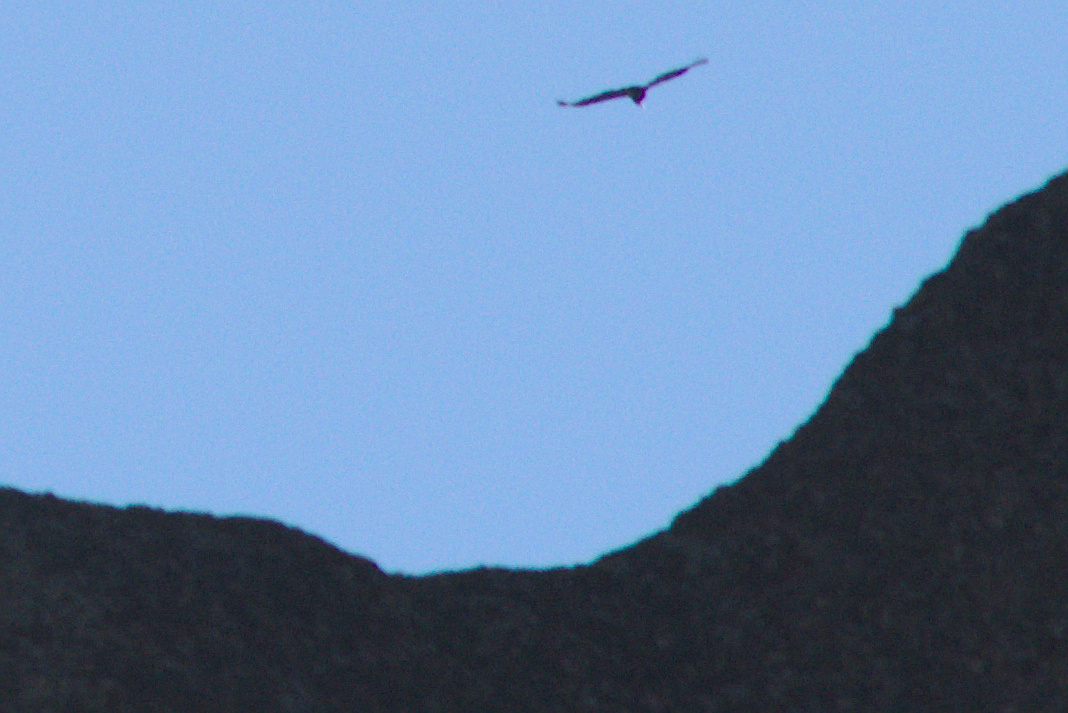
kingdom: Animalia
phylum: Chordata
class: Aves
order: Accipitriformes
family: Cathartidae
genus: Gymnogyps
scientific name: Gymnogyps californianus
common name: California condor
